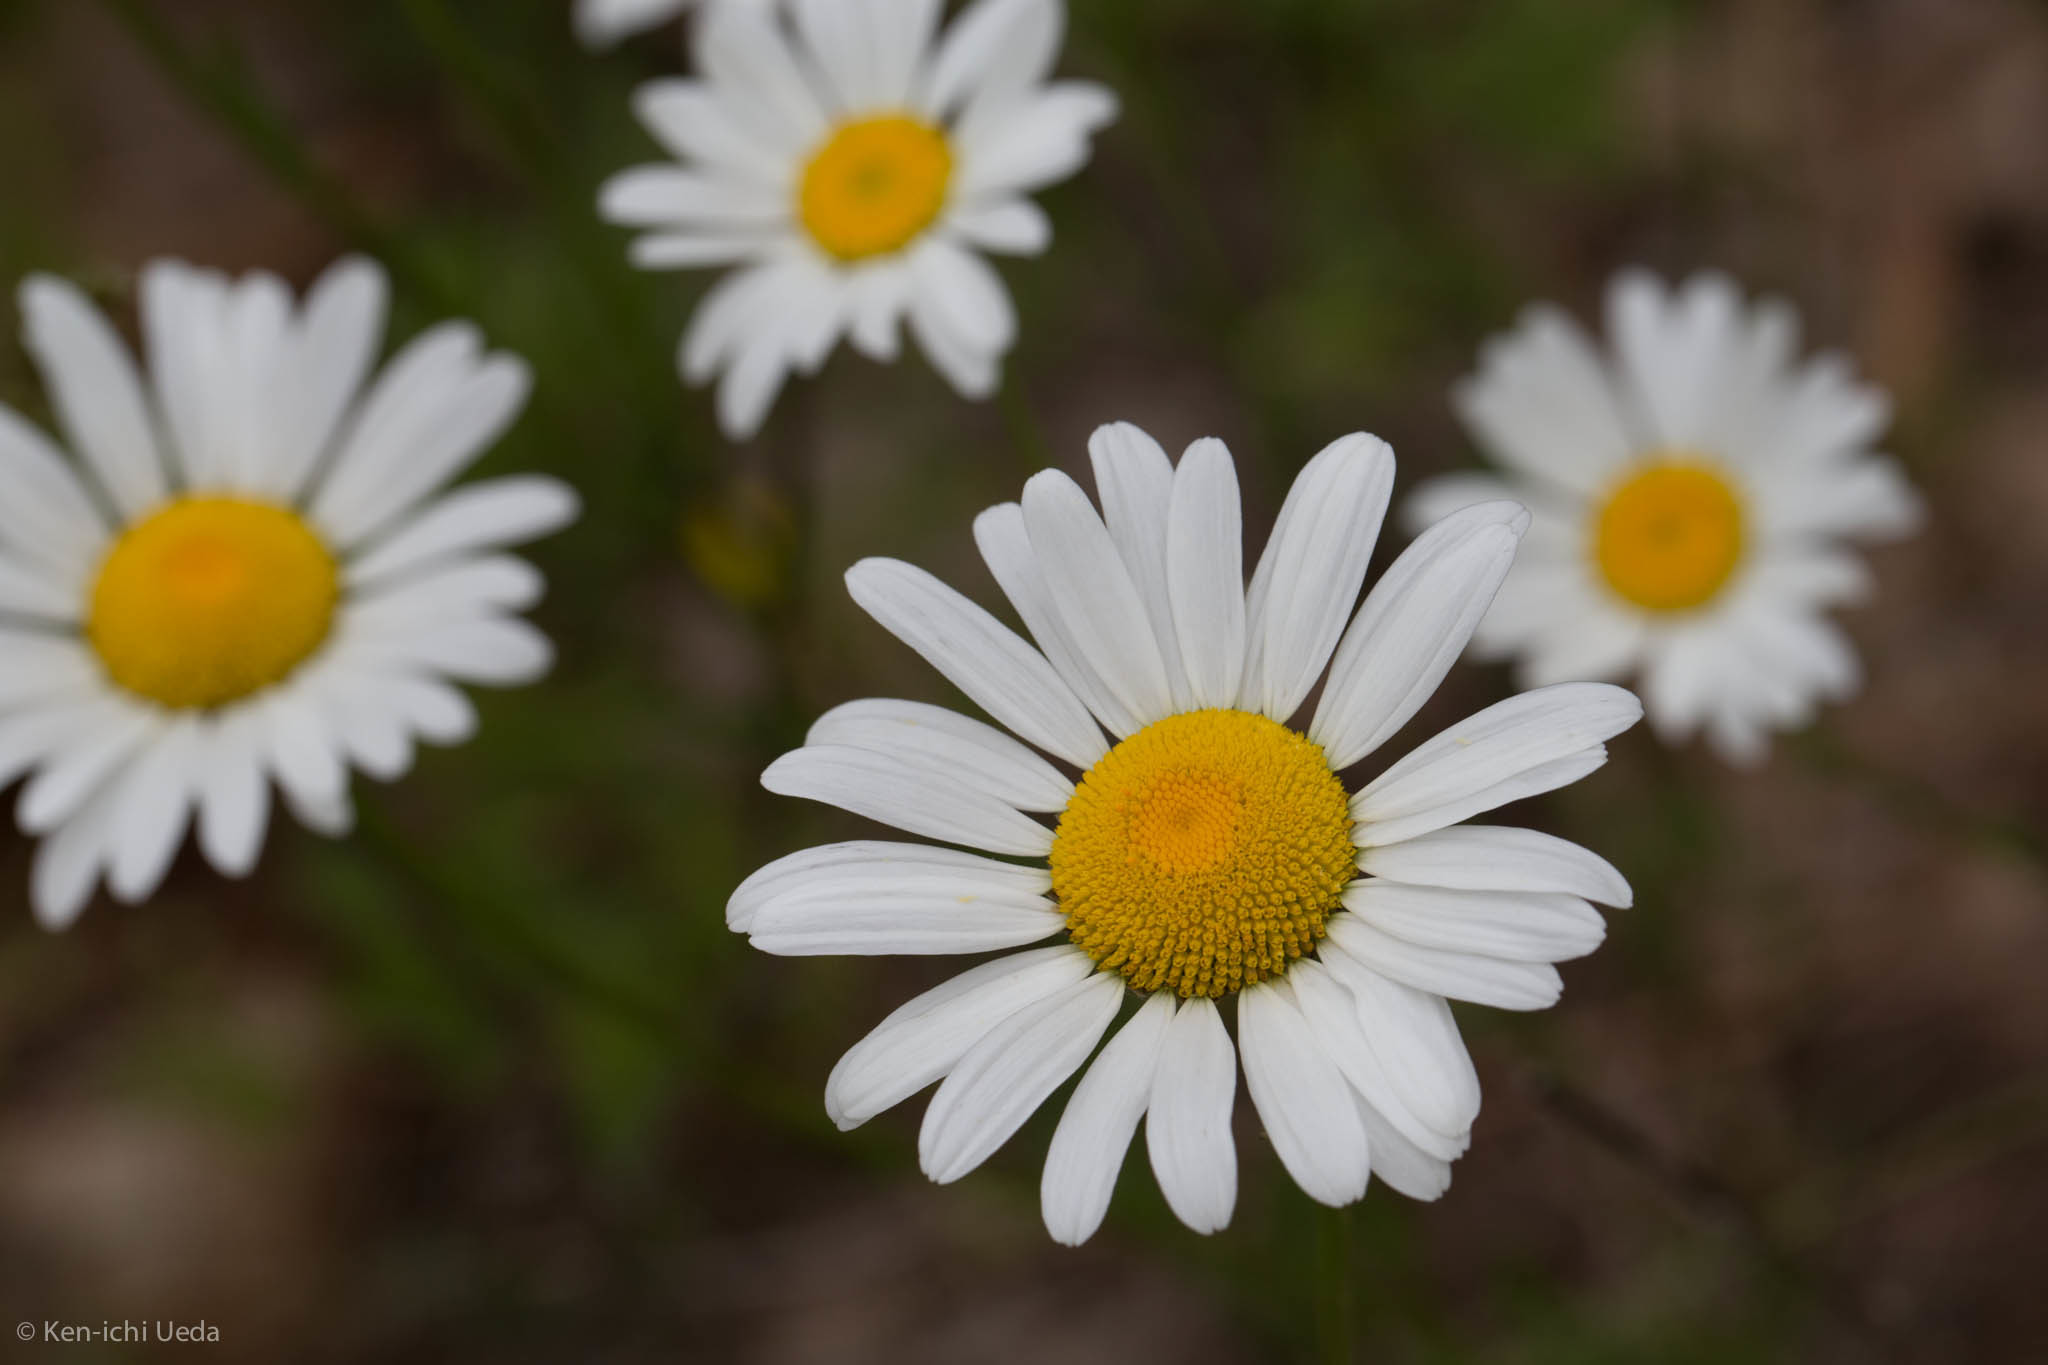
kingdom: Plantae
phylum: Tracheophyta
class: Magnoliopsida
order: Asterales
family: Asteraceae
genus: Leucanthemum
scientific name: Leucanthemum vulgare
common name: Oxeye daisy
